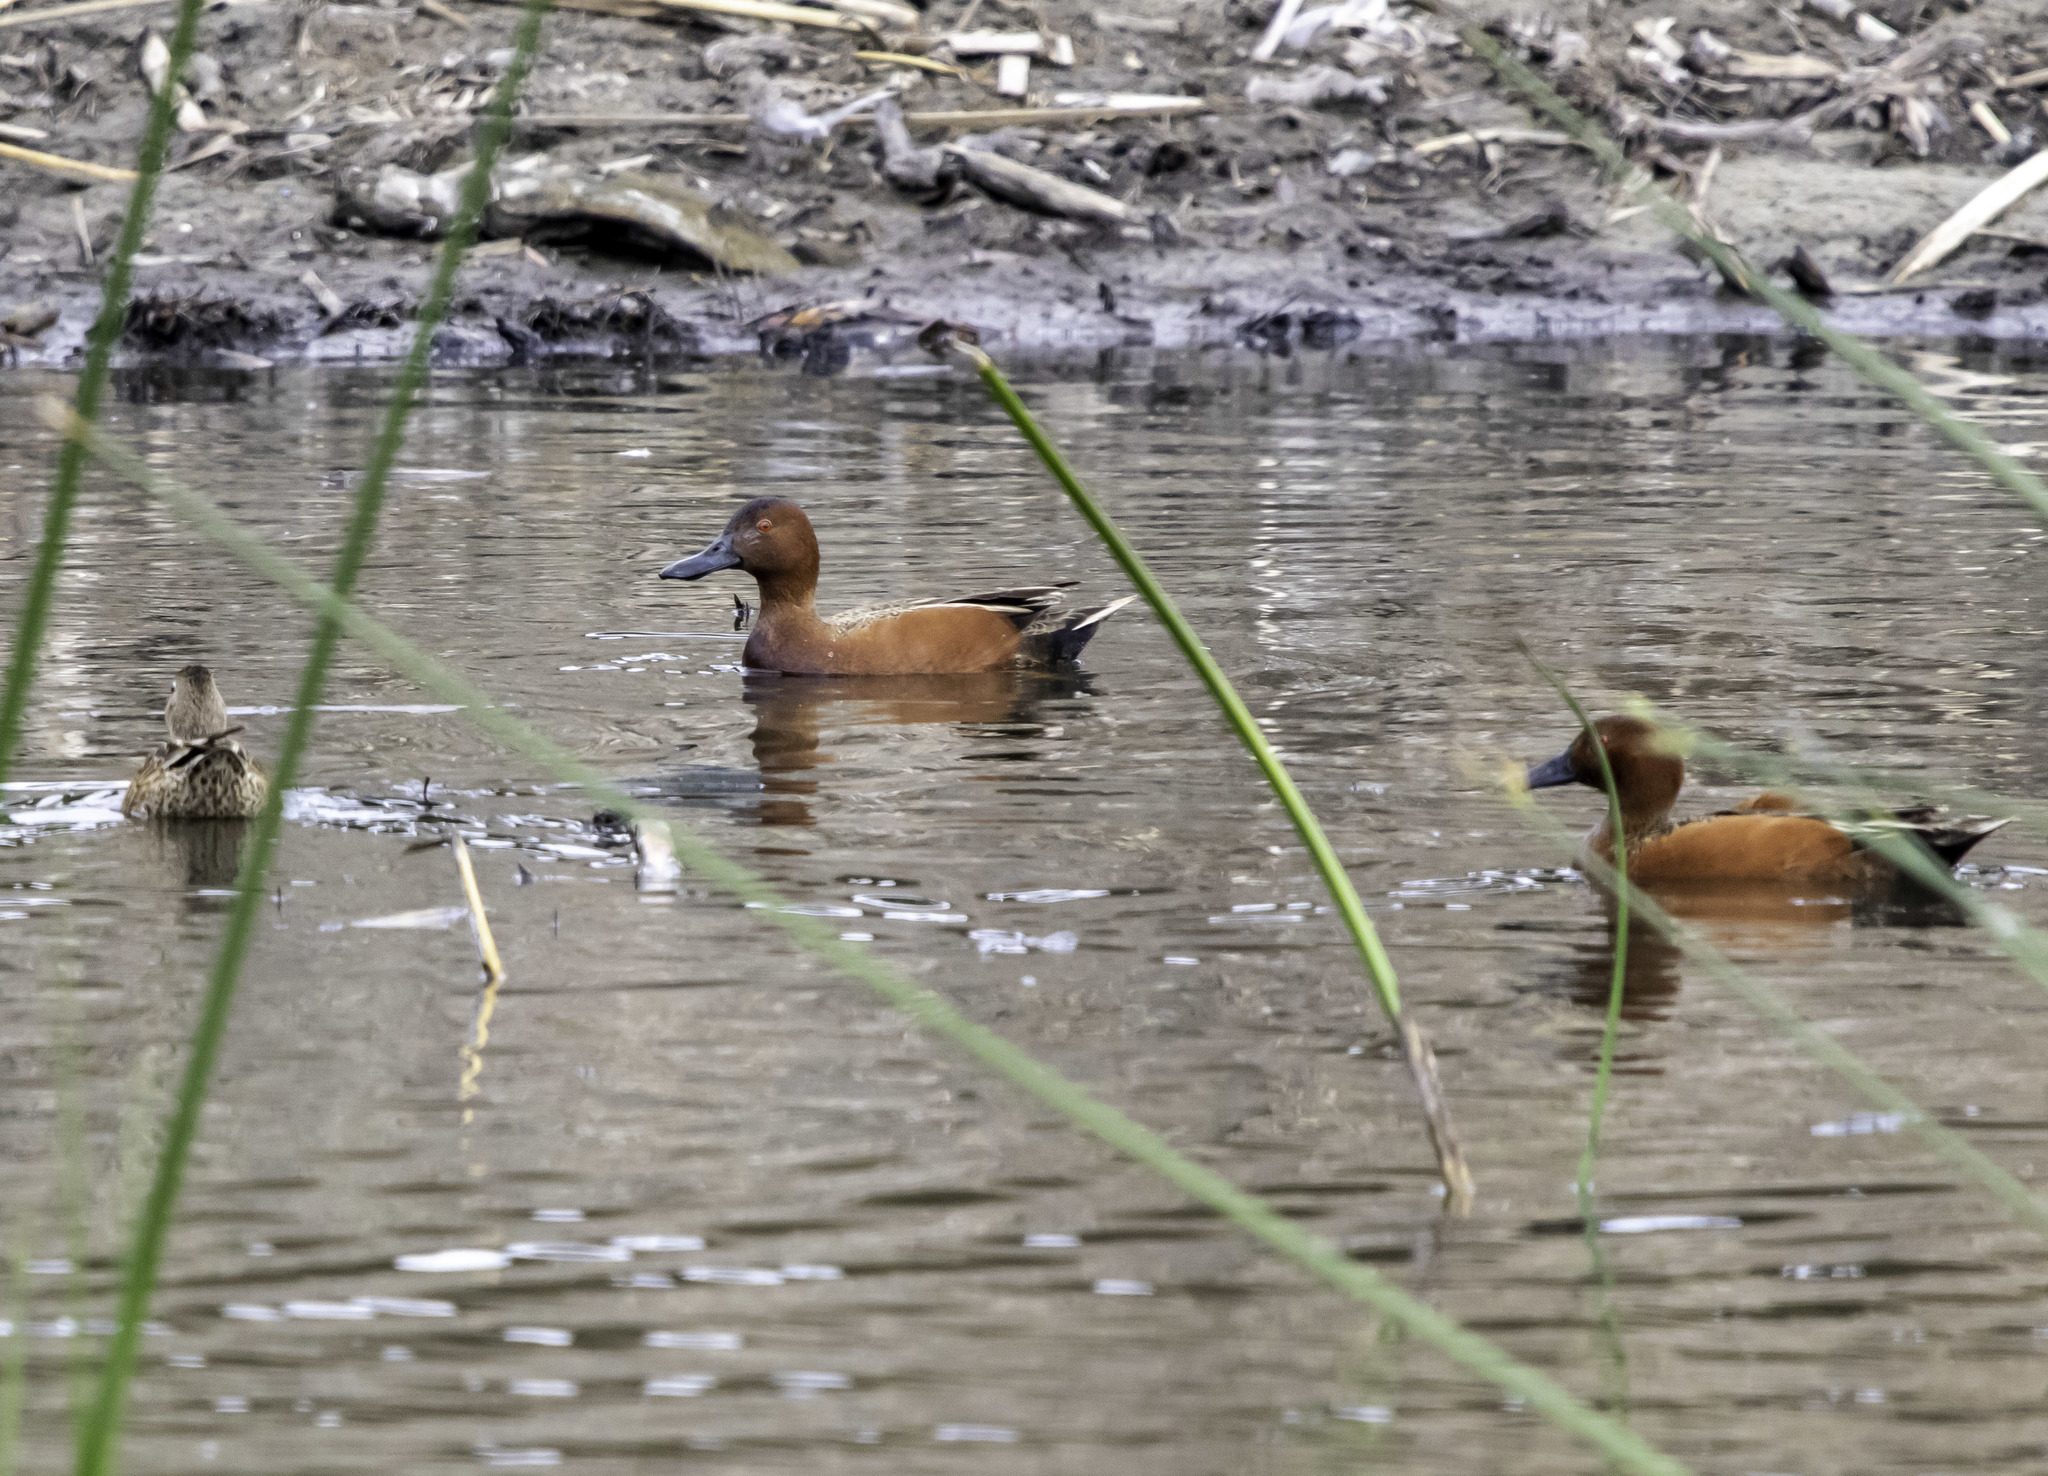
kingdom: Animalia
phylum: Chordata
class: Aves
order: Anseriformes
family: Anatidae
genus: Spatula
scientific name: Spatula cyanoptera
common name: Cinnamon teal
